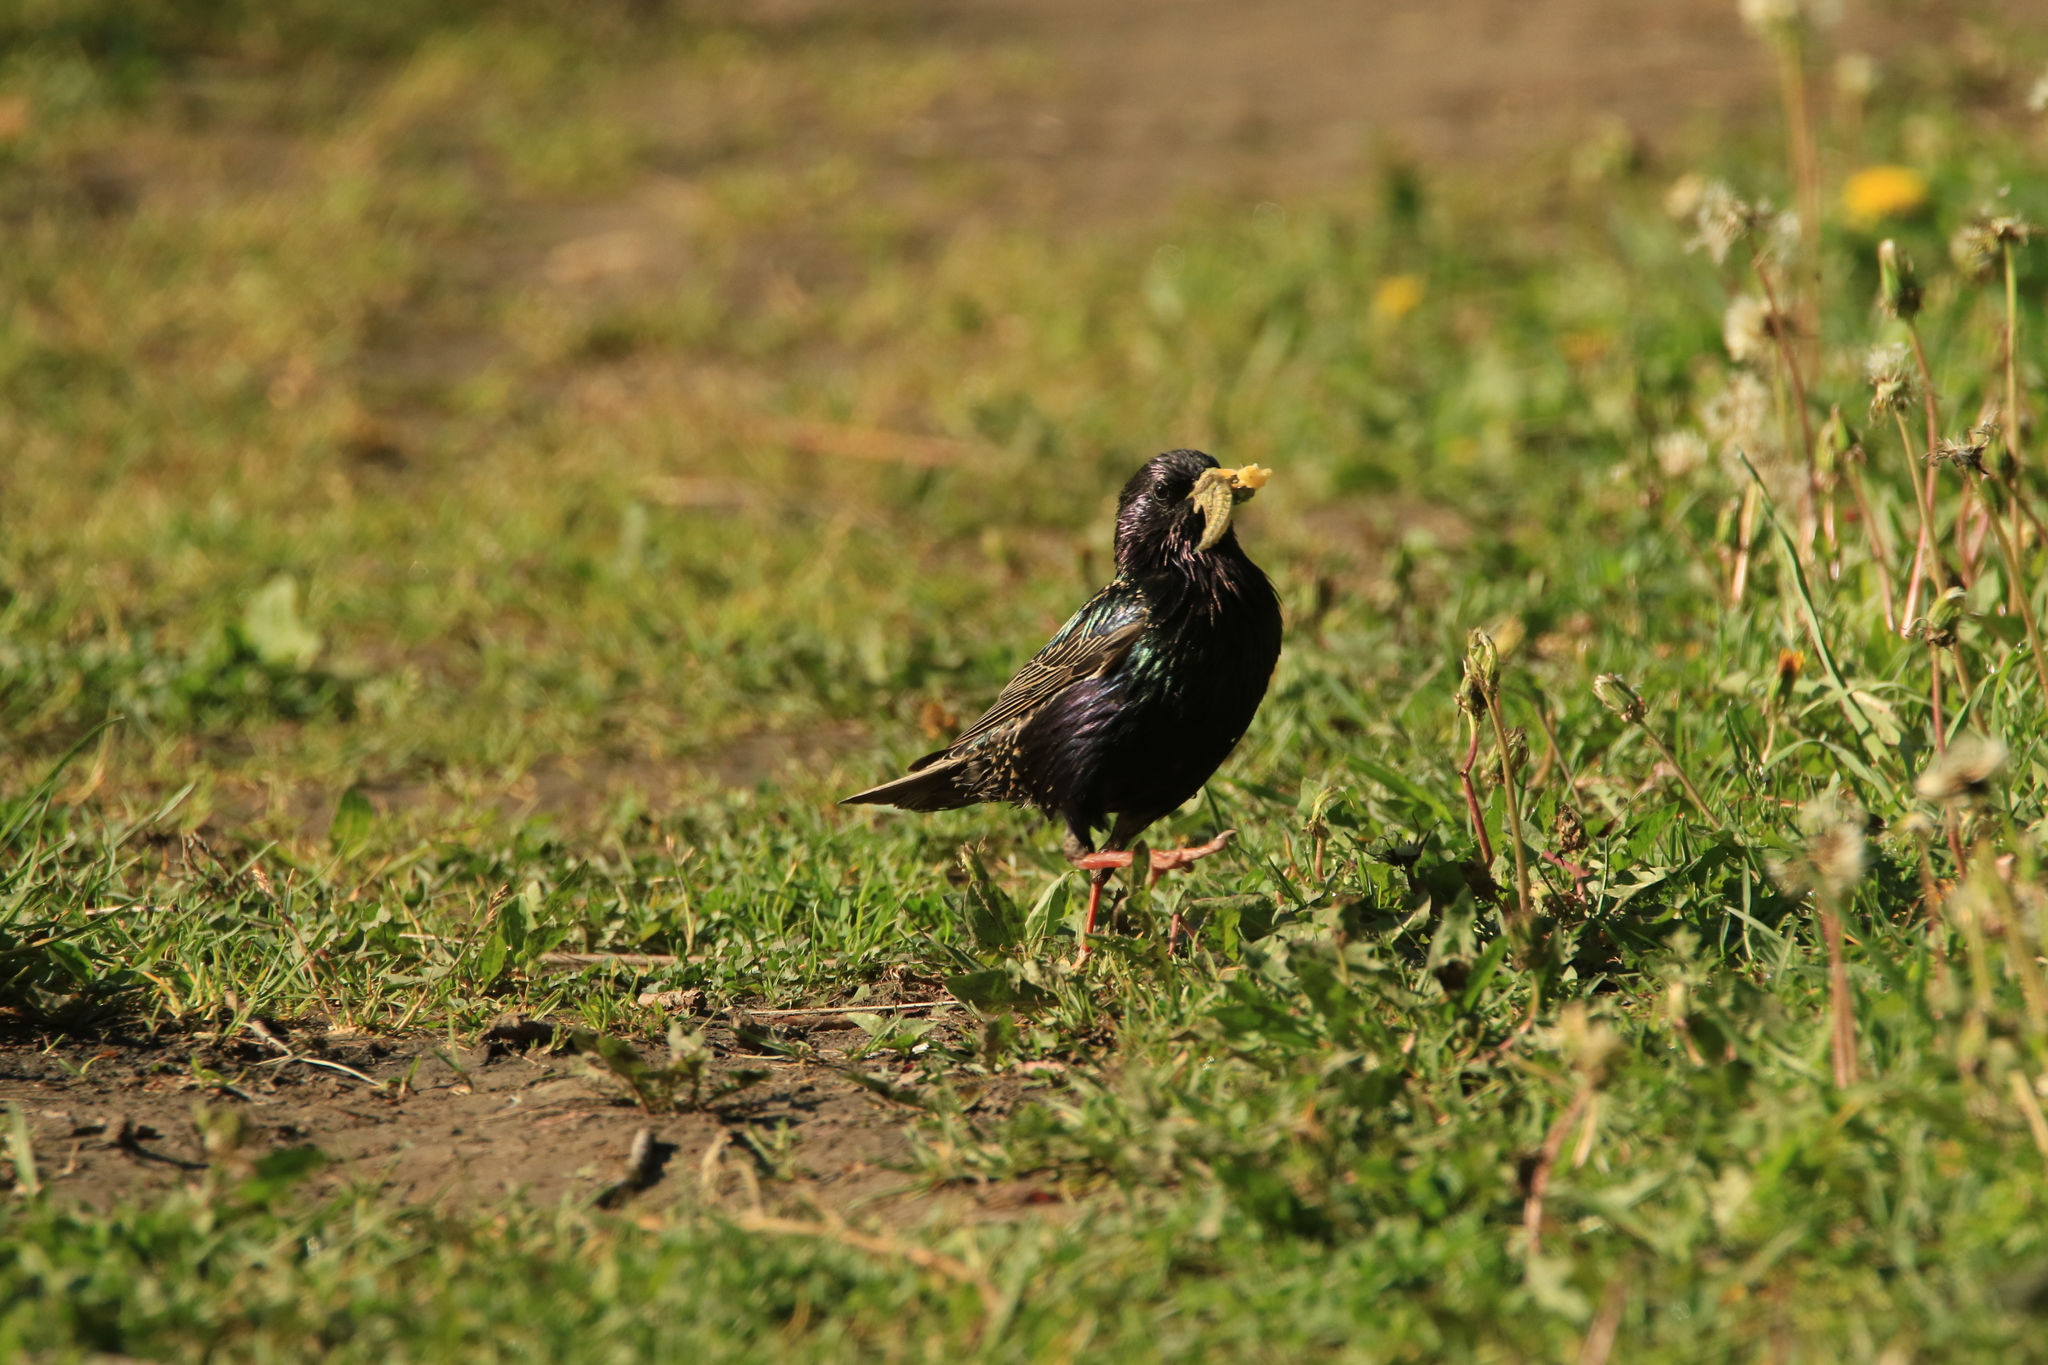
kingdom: Animalia
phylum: Chordata
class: Aves
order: Passeriformes
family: Sturnidae
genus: Sturnus
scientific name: Sturnus vulgaris
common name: Common starling
